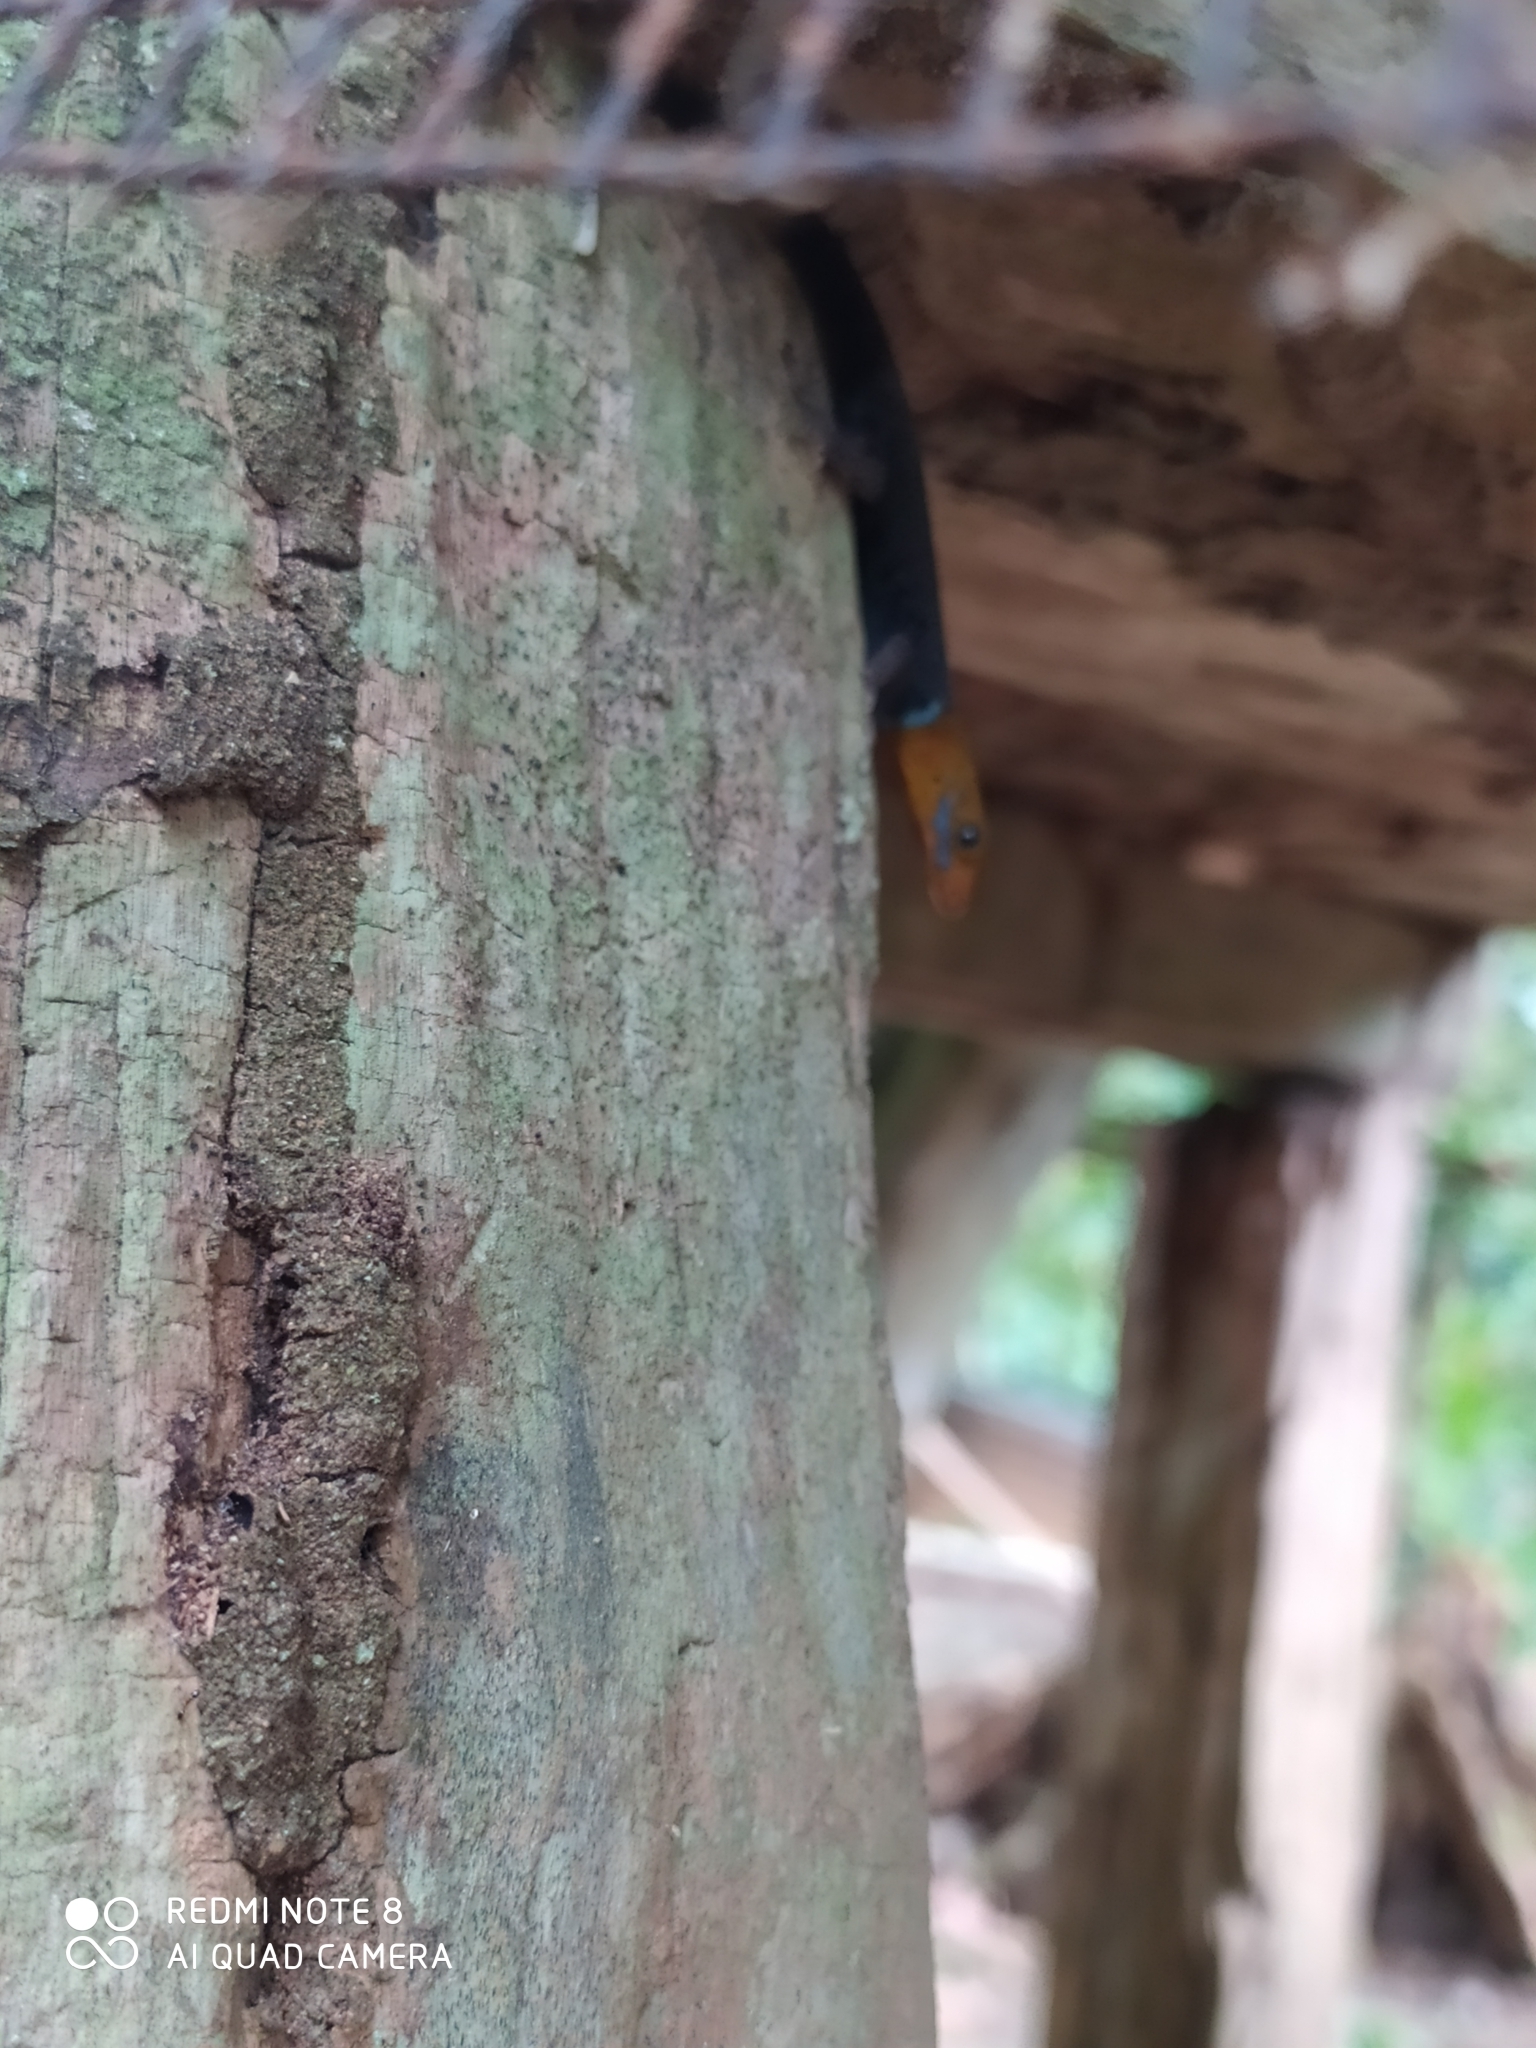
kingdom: Animalia
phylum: Chordata
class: Squamata
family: Sphaerodactylidae
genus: Gonatodes
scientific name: Gonatodes albogularis
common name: Yellow-headed gecko
